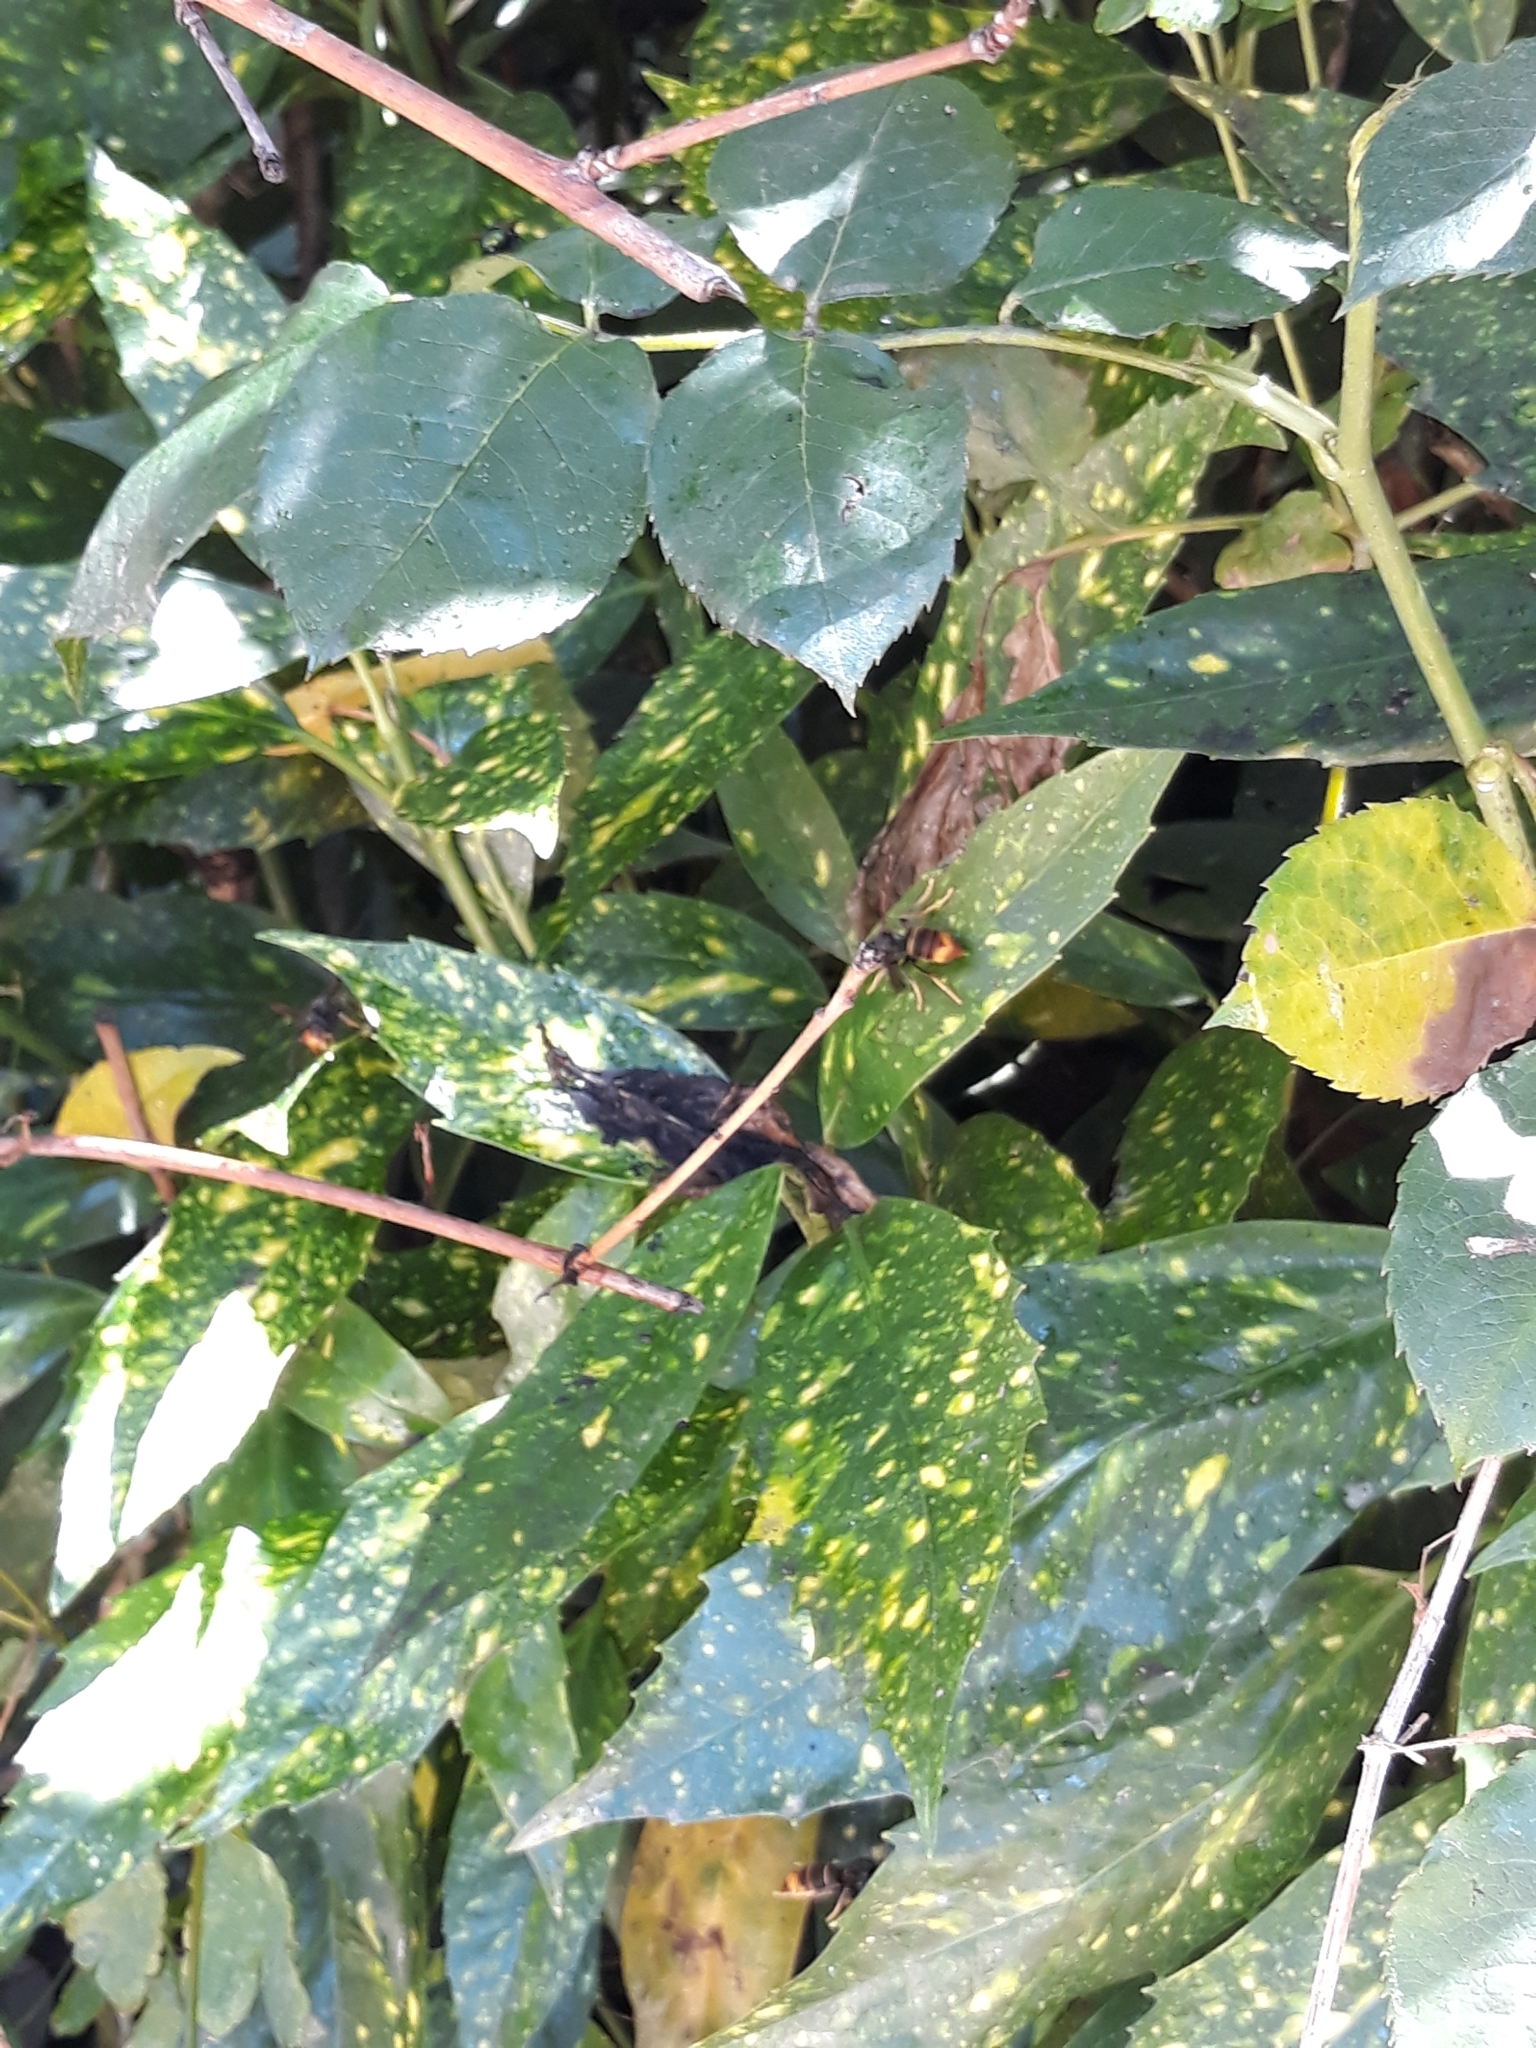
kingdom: Animalia
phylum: Arthropoda
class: Insecta
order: Hymenoptera
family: Vespidae
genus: Vespa
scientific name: Vespa velutina
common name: Asian hornet
